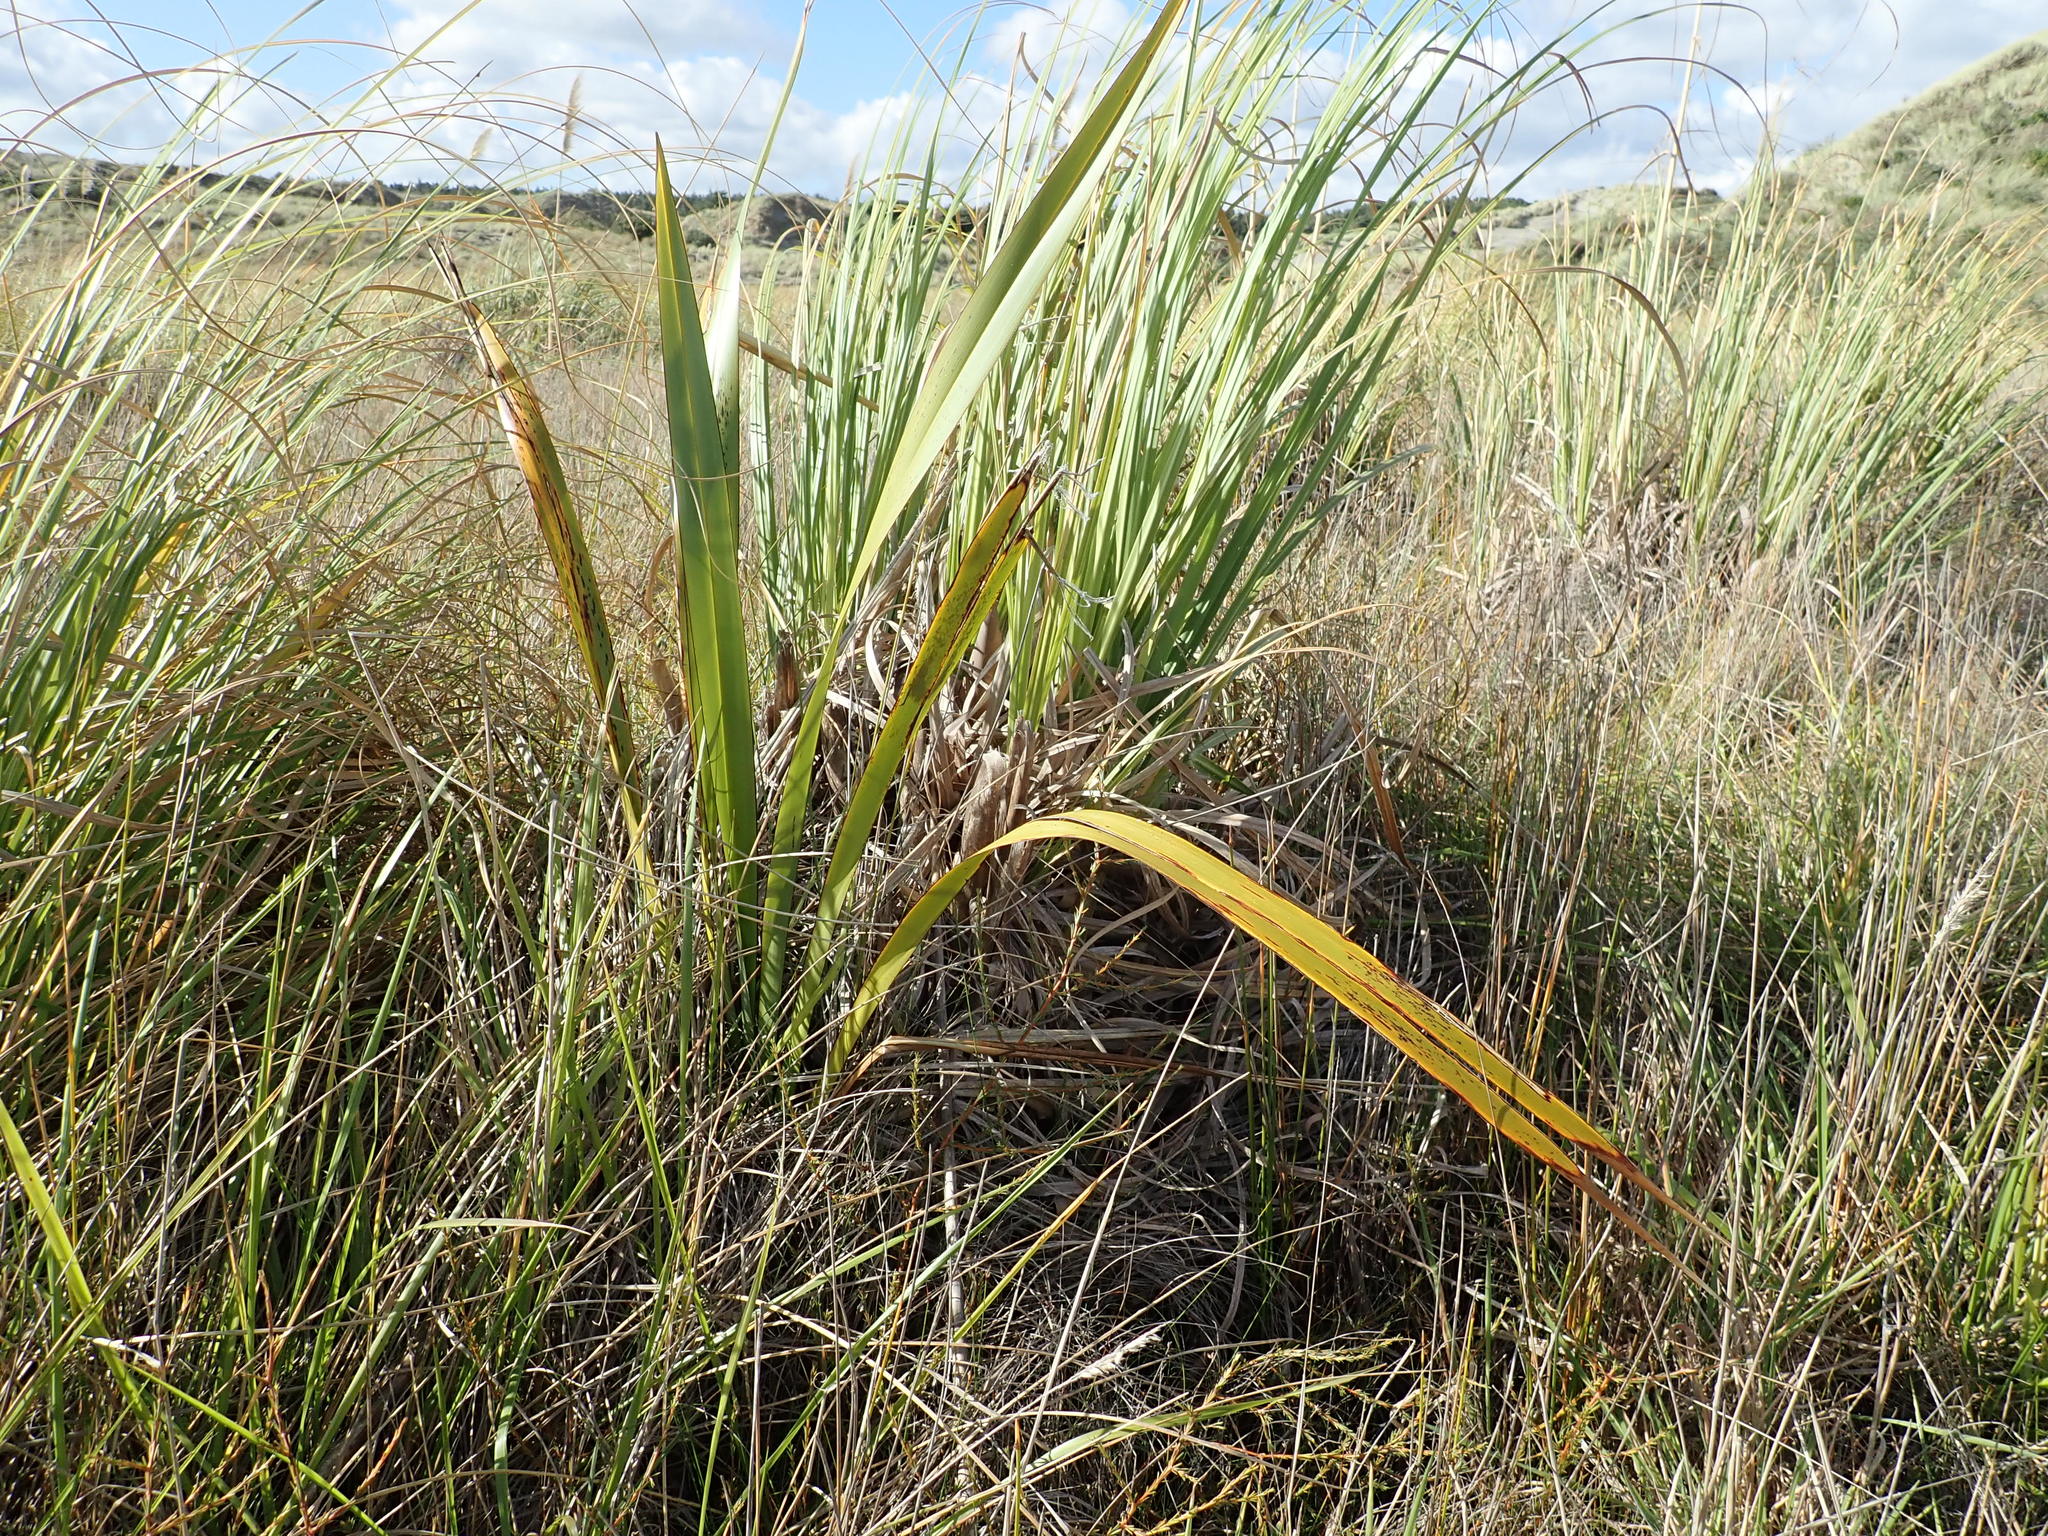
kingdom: Plantae
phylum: Tracheophyta
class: Liliopsida
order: Asparagales
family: Asphodelaceae
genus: Phormium
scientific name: Phormium tenax
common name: New zealand flax
